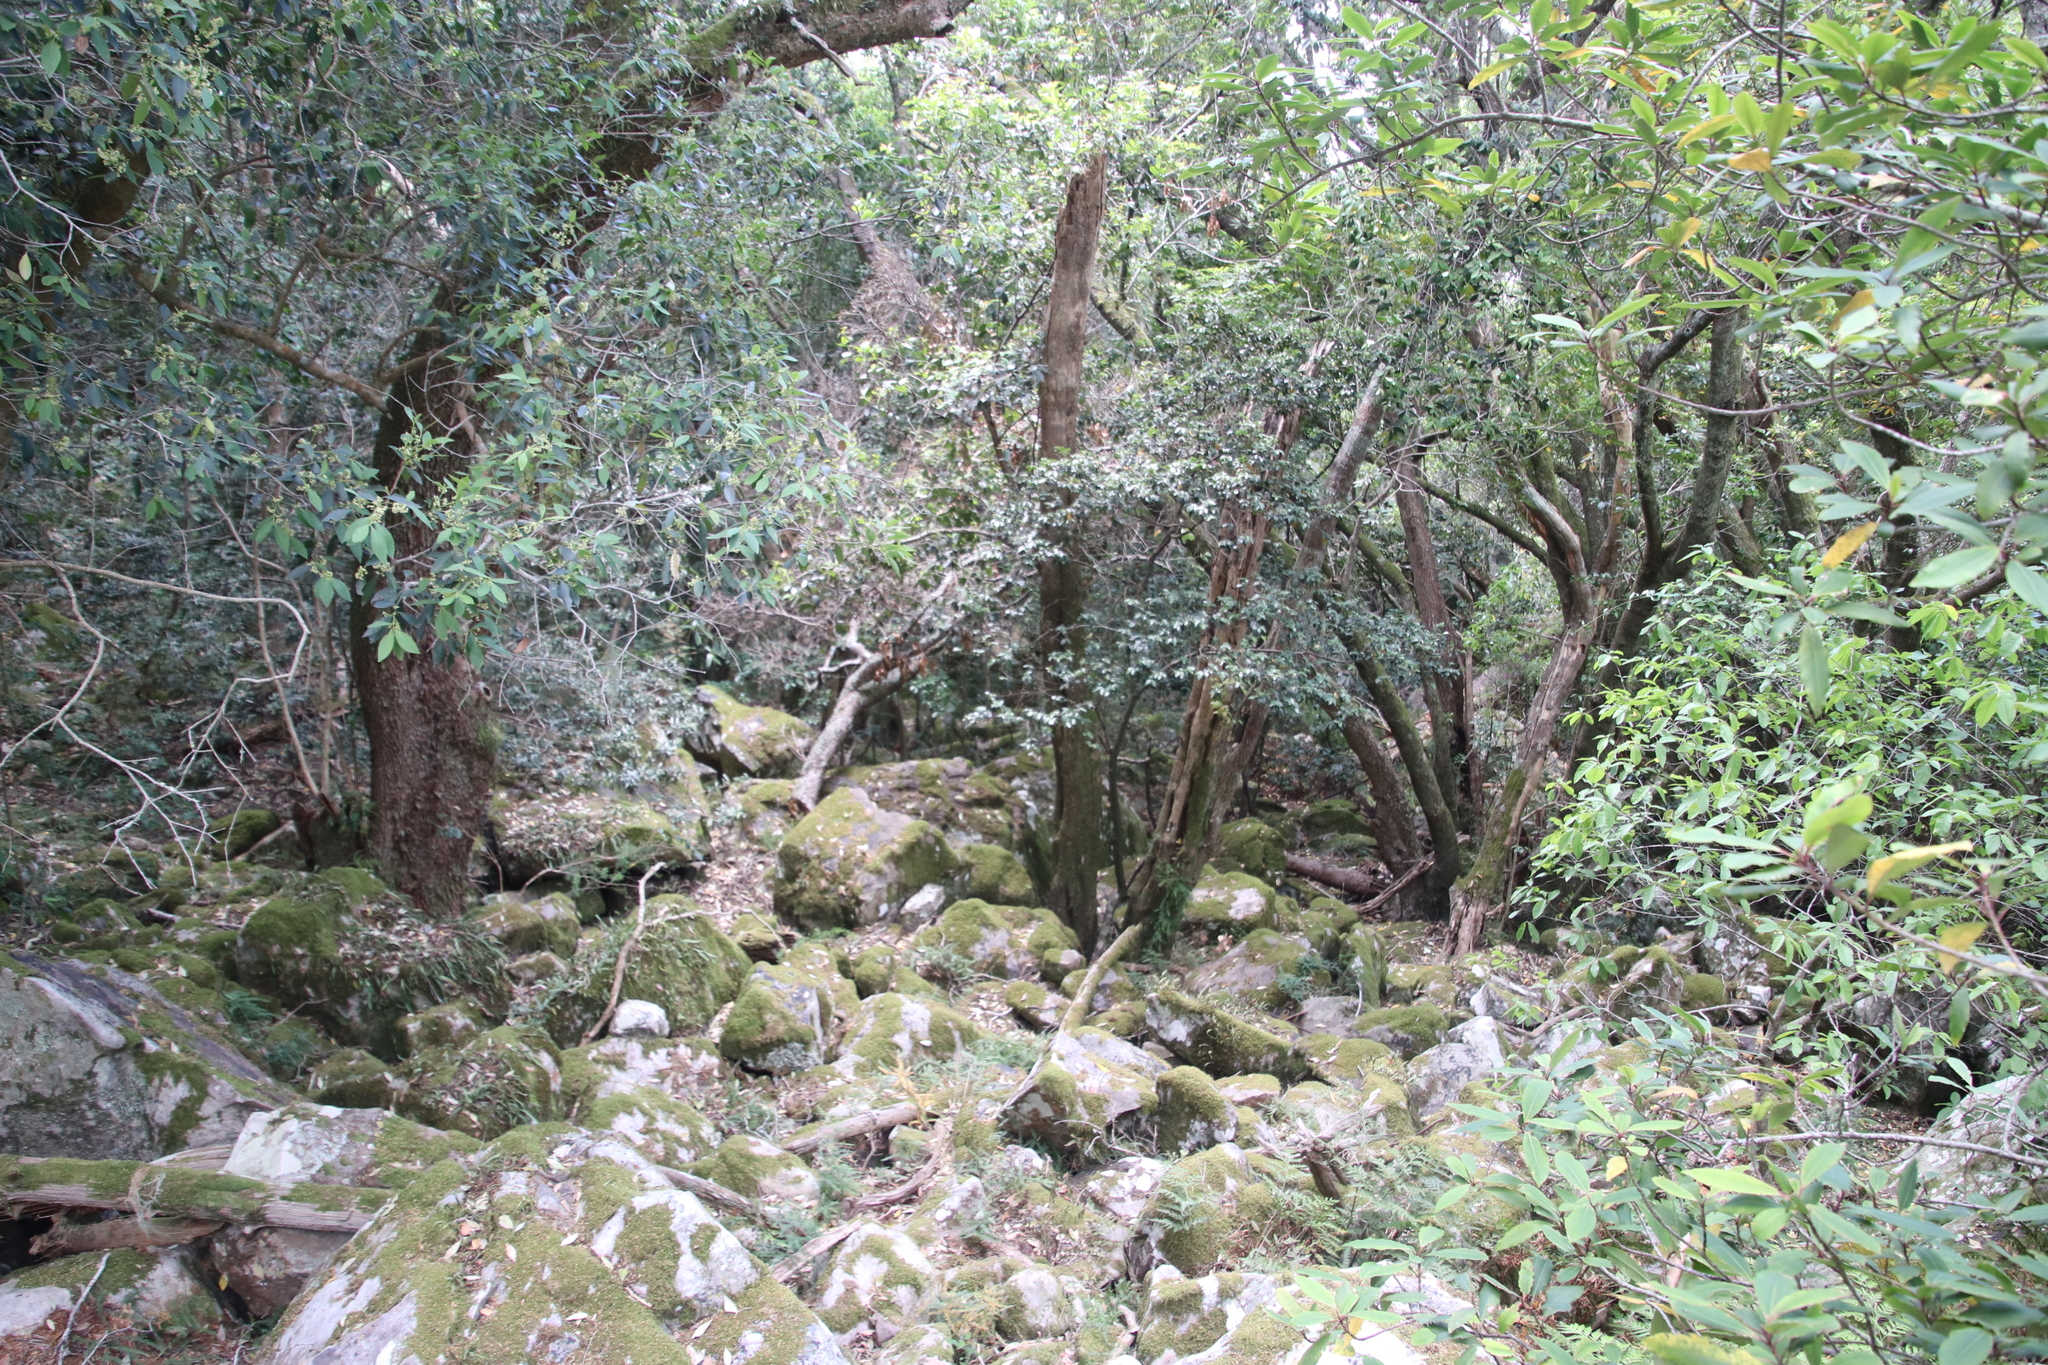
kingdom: Plantae
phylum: Tracheophyta
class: Magnoliopsida
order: Ericales
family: Ebenaceae
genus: Diospyros
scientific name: Diospyros whyteana
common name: Bladder-nut
